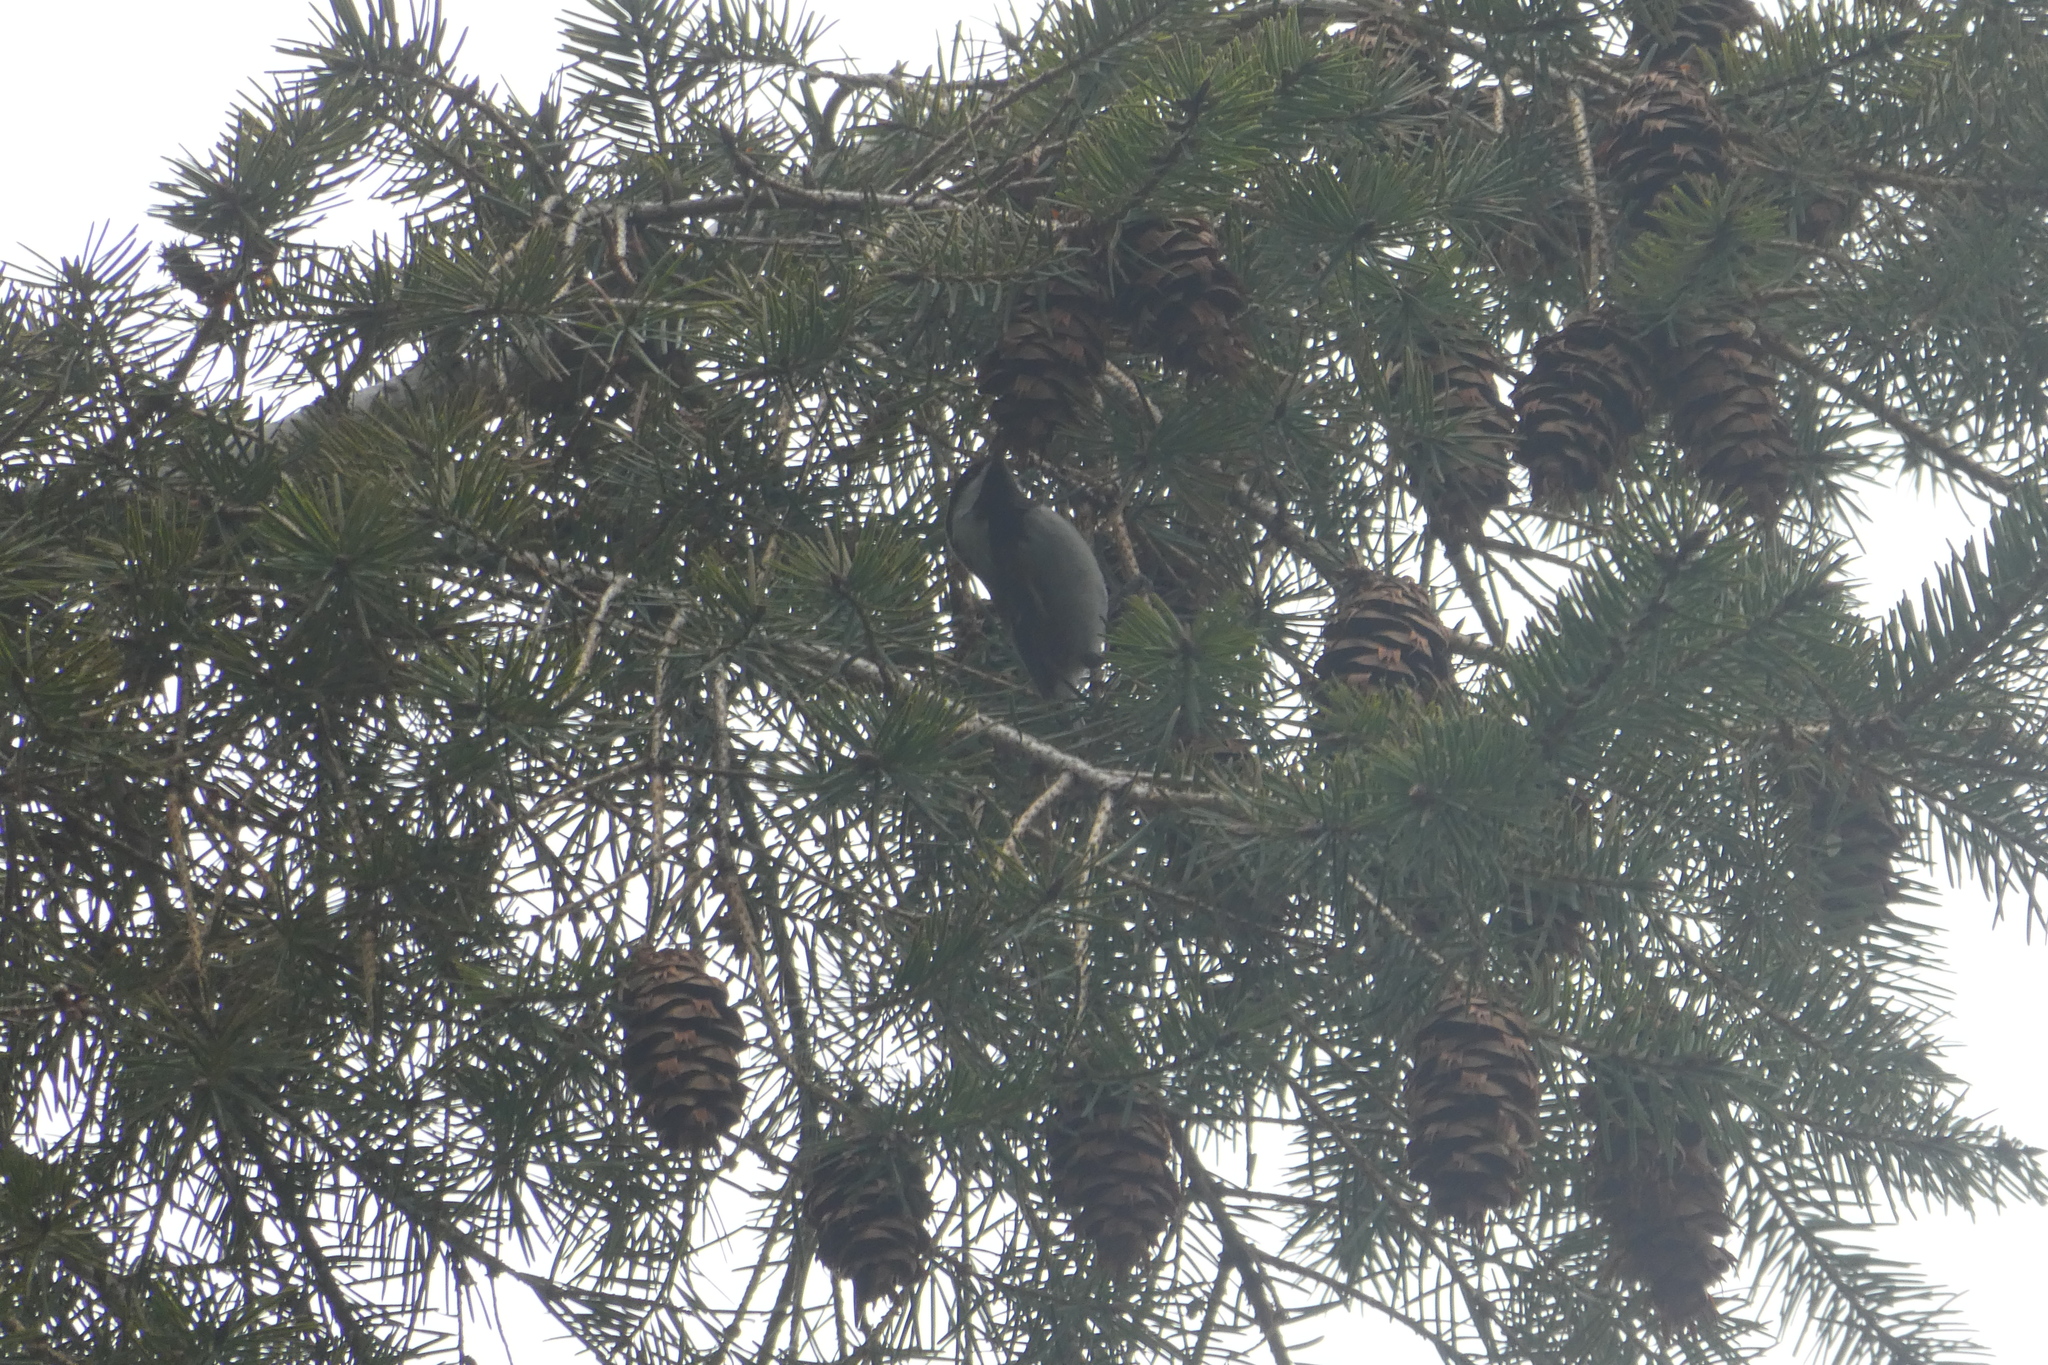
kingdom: Animalia
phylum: Chordata
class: Aves
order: Passeriformes
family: Paridae
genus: Poecile
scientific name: Poecile rufescens
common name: Chestnut-backed chickadee
